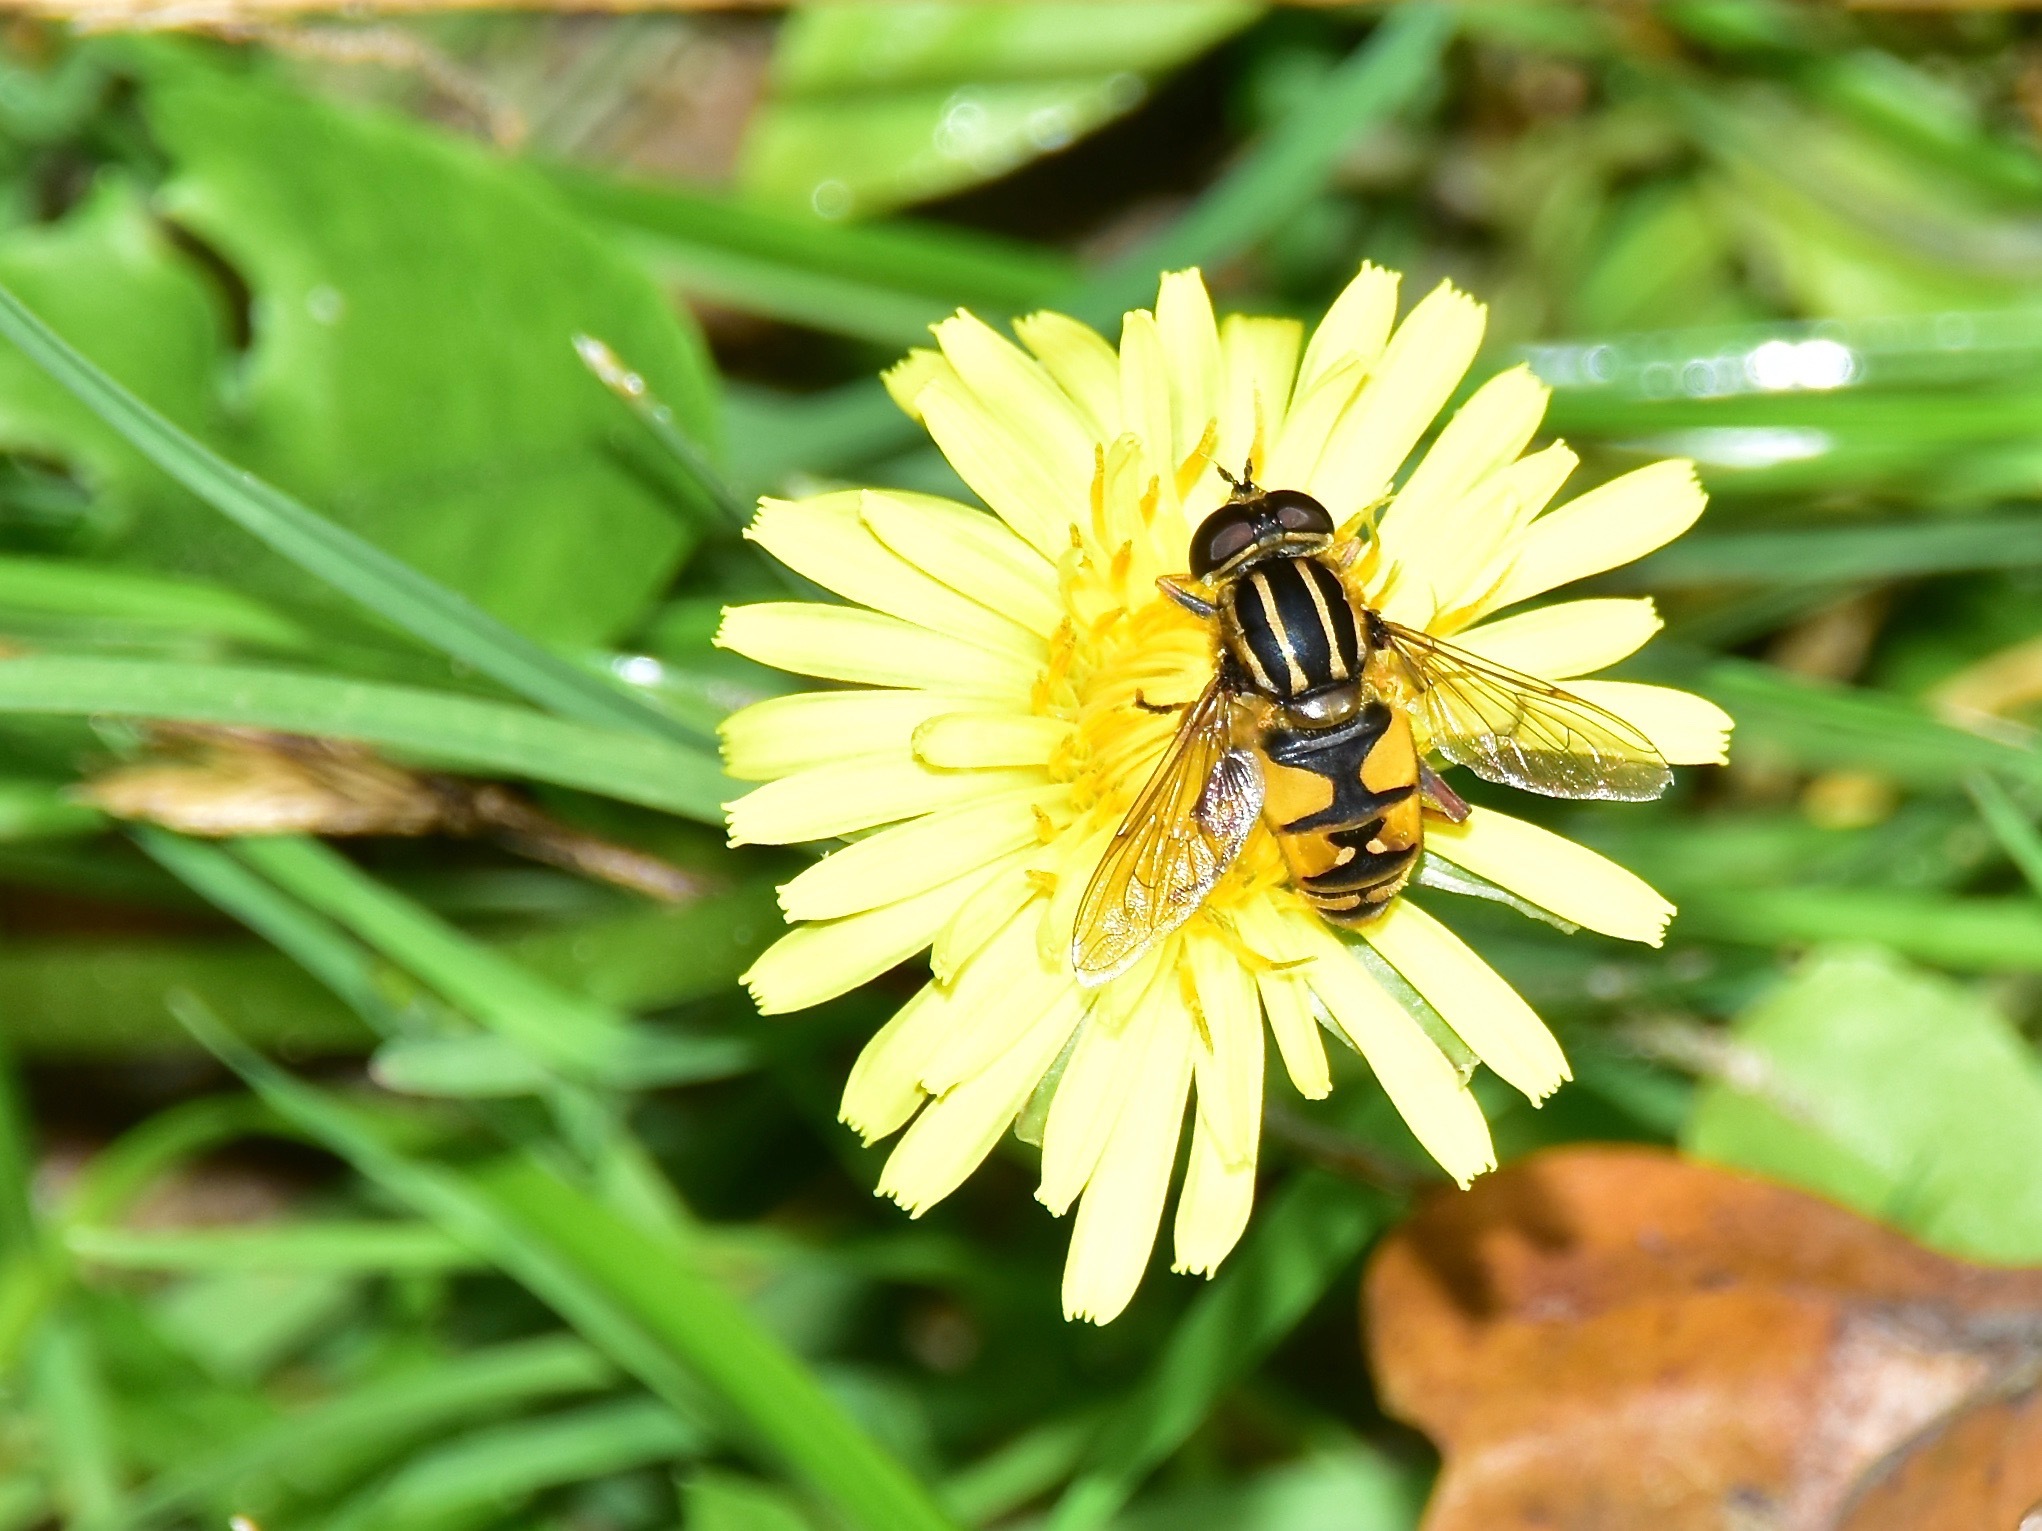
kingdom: Animalia
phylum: Arthropoda
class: Insecta
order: Diptera
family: Syrphidae
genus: Helophilus
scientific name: Helophilus pendulus
